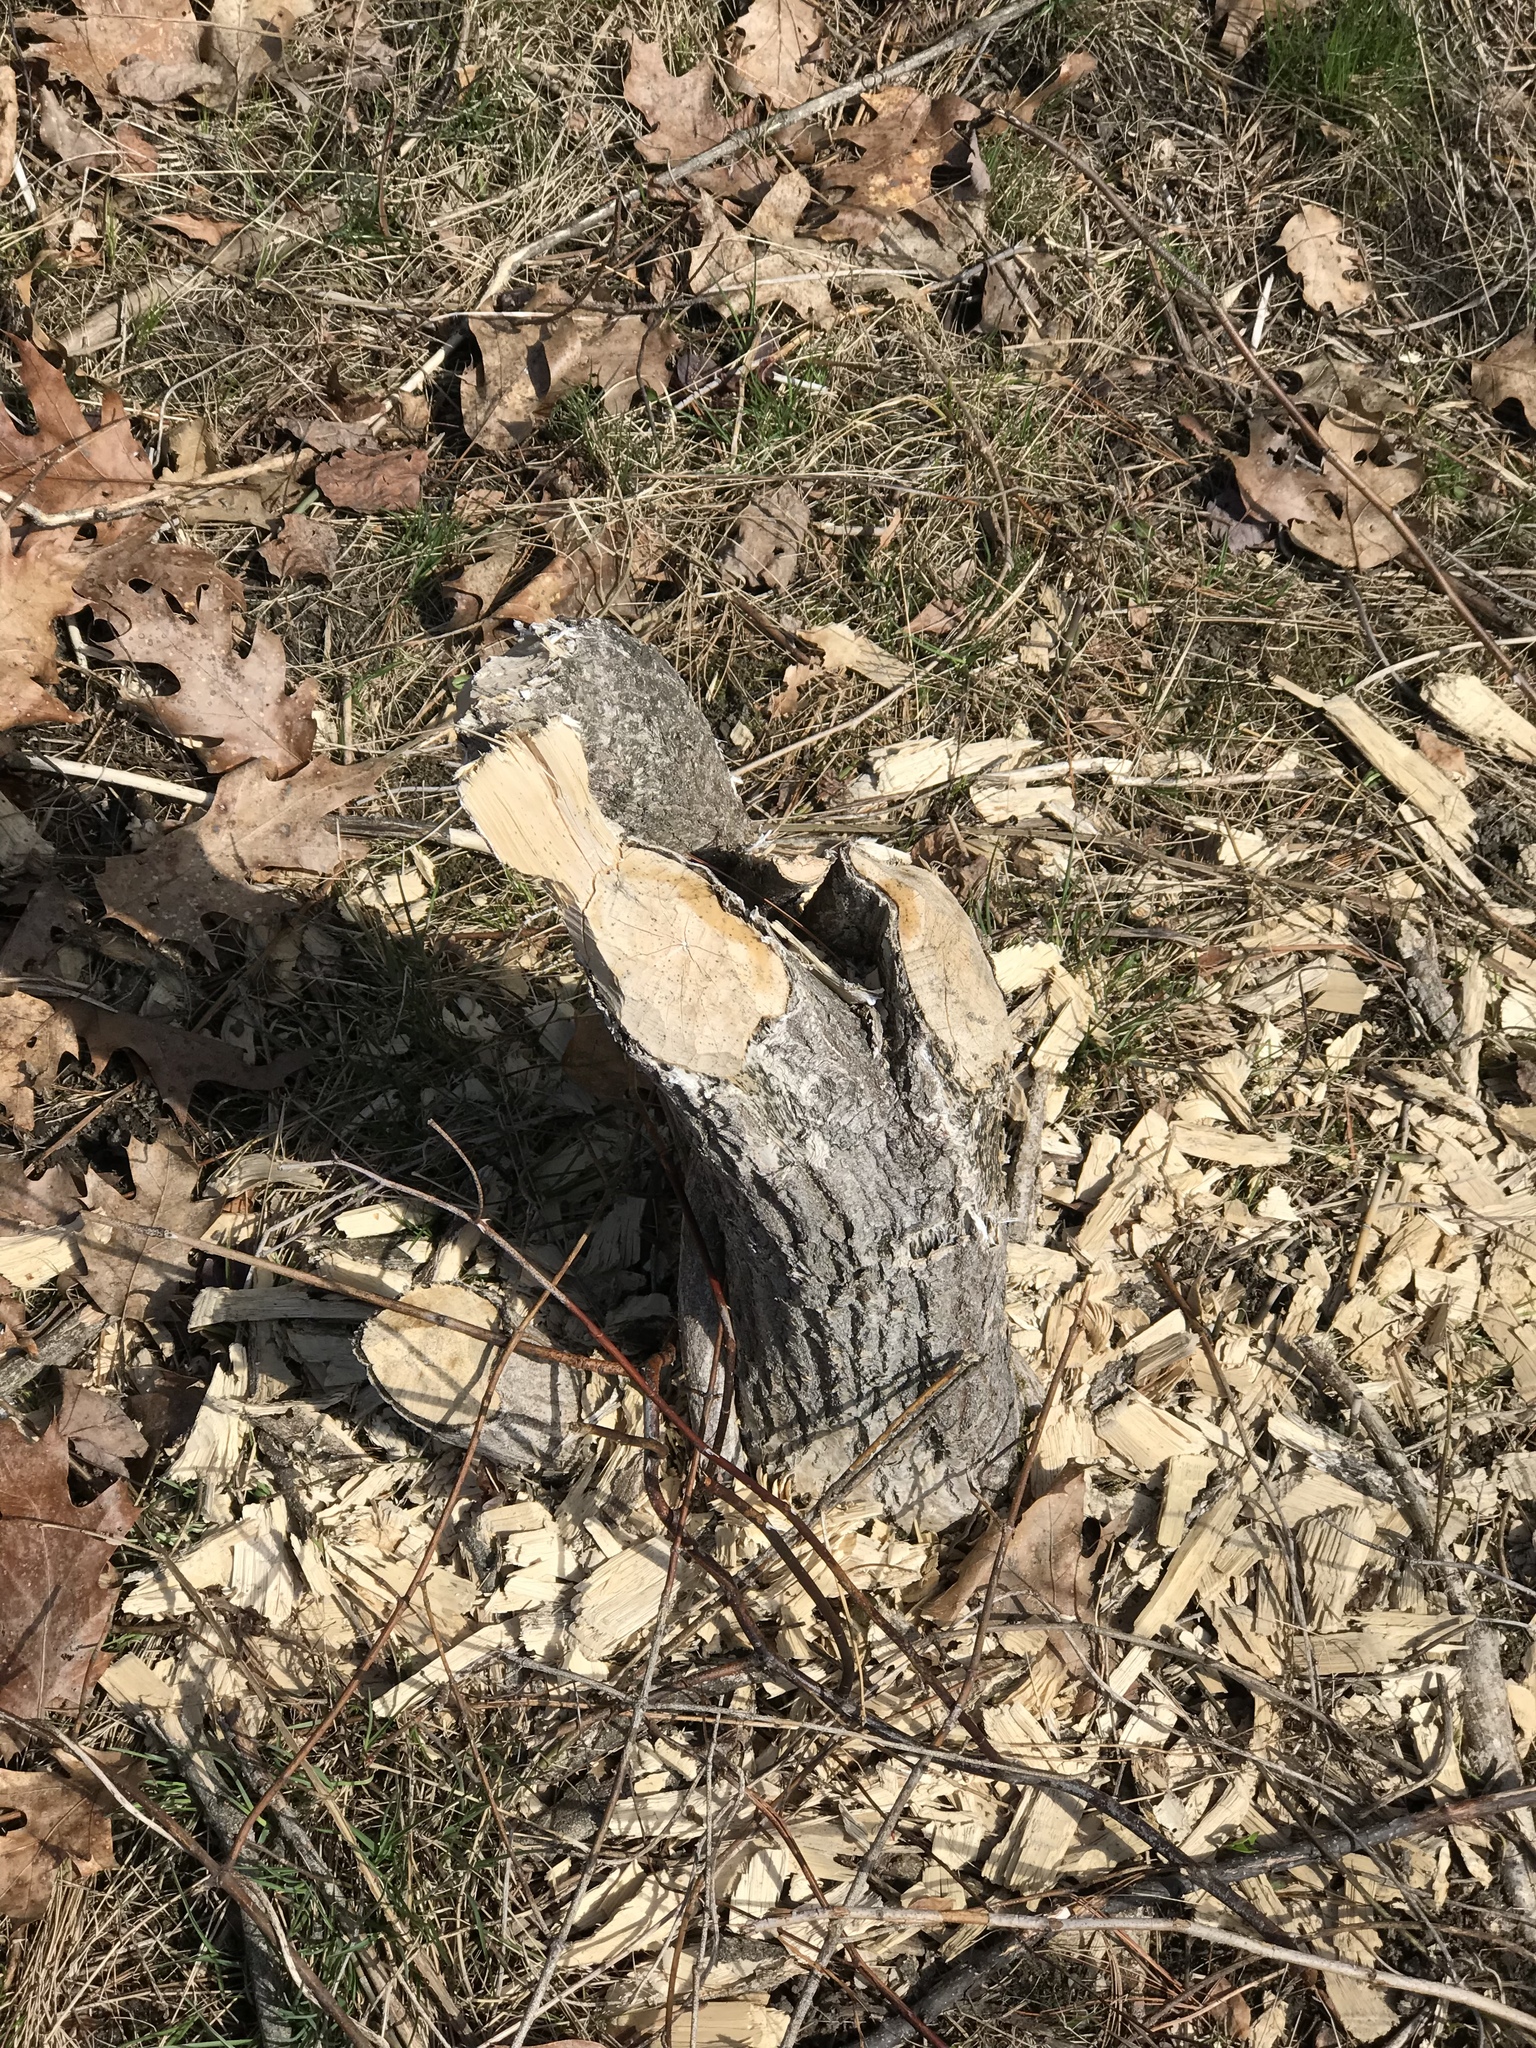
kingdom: Animalia
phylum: Chordata
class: Mammalia
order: Rodentia
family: Castoridae
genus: Castor
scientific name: Castor canadensis
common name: American beaver
